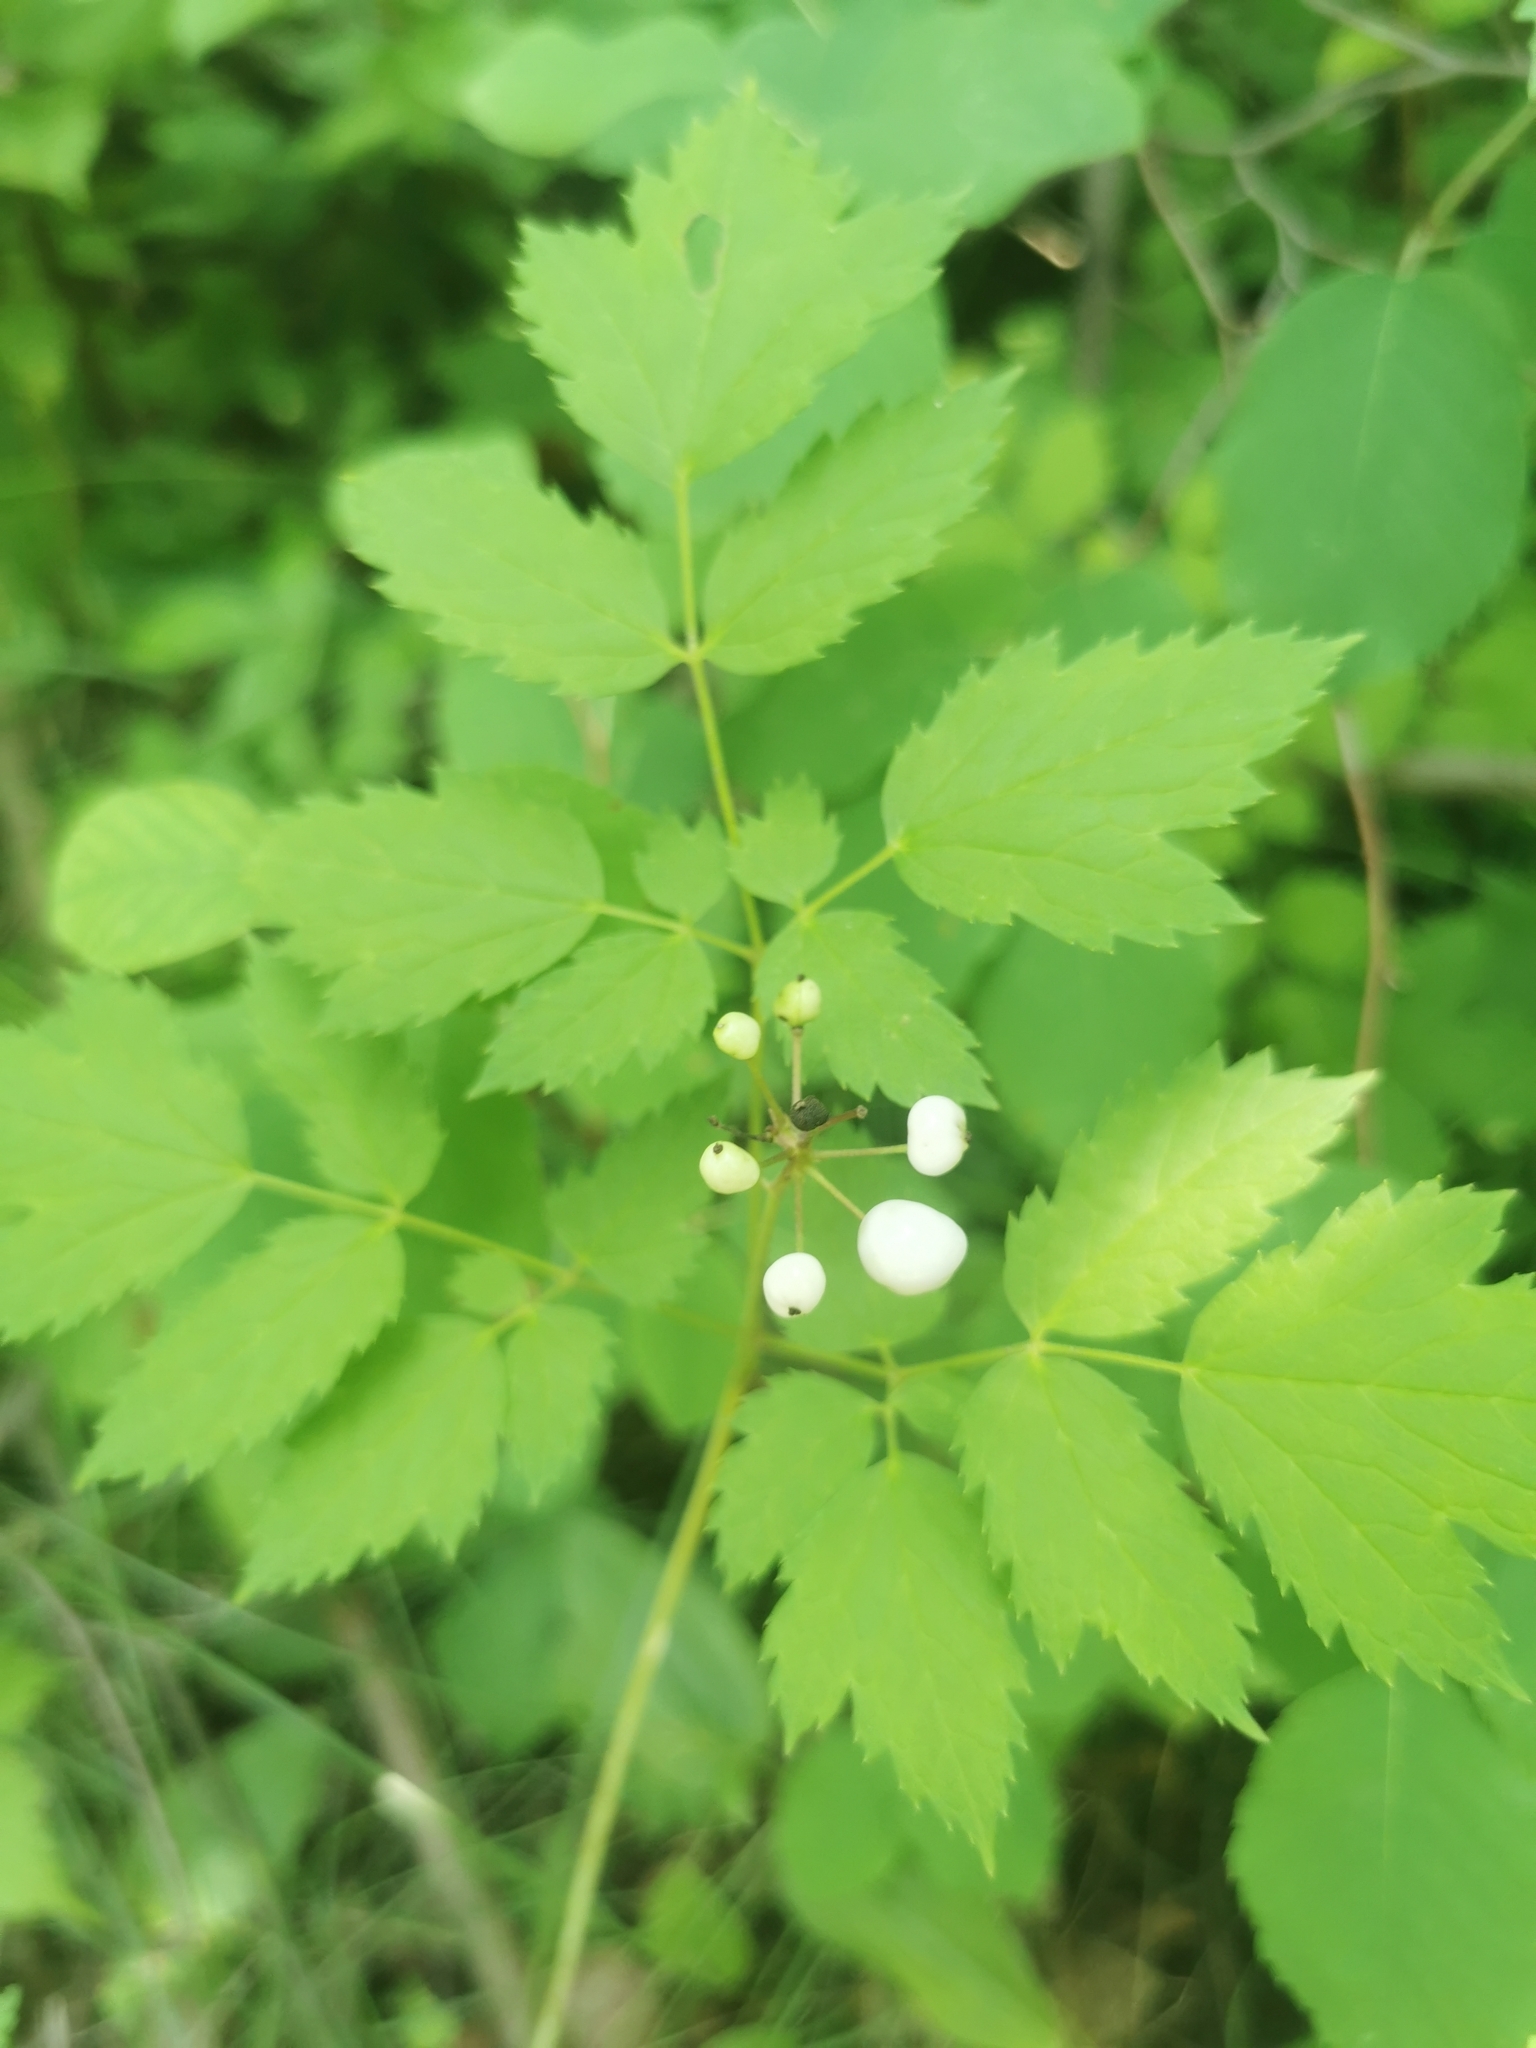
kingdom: Plantae
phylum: Tracheophyta
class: Magnoliopsida
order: Ranunculales
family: Ranunculaceae
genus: Actaea
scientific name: Actaea rubra
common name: Red baneberry
